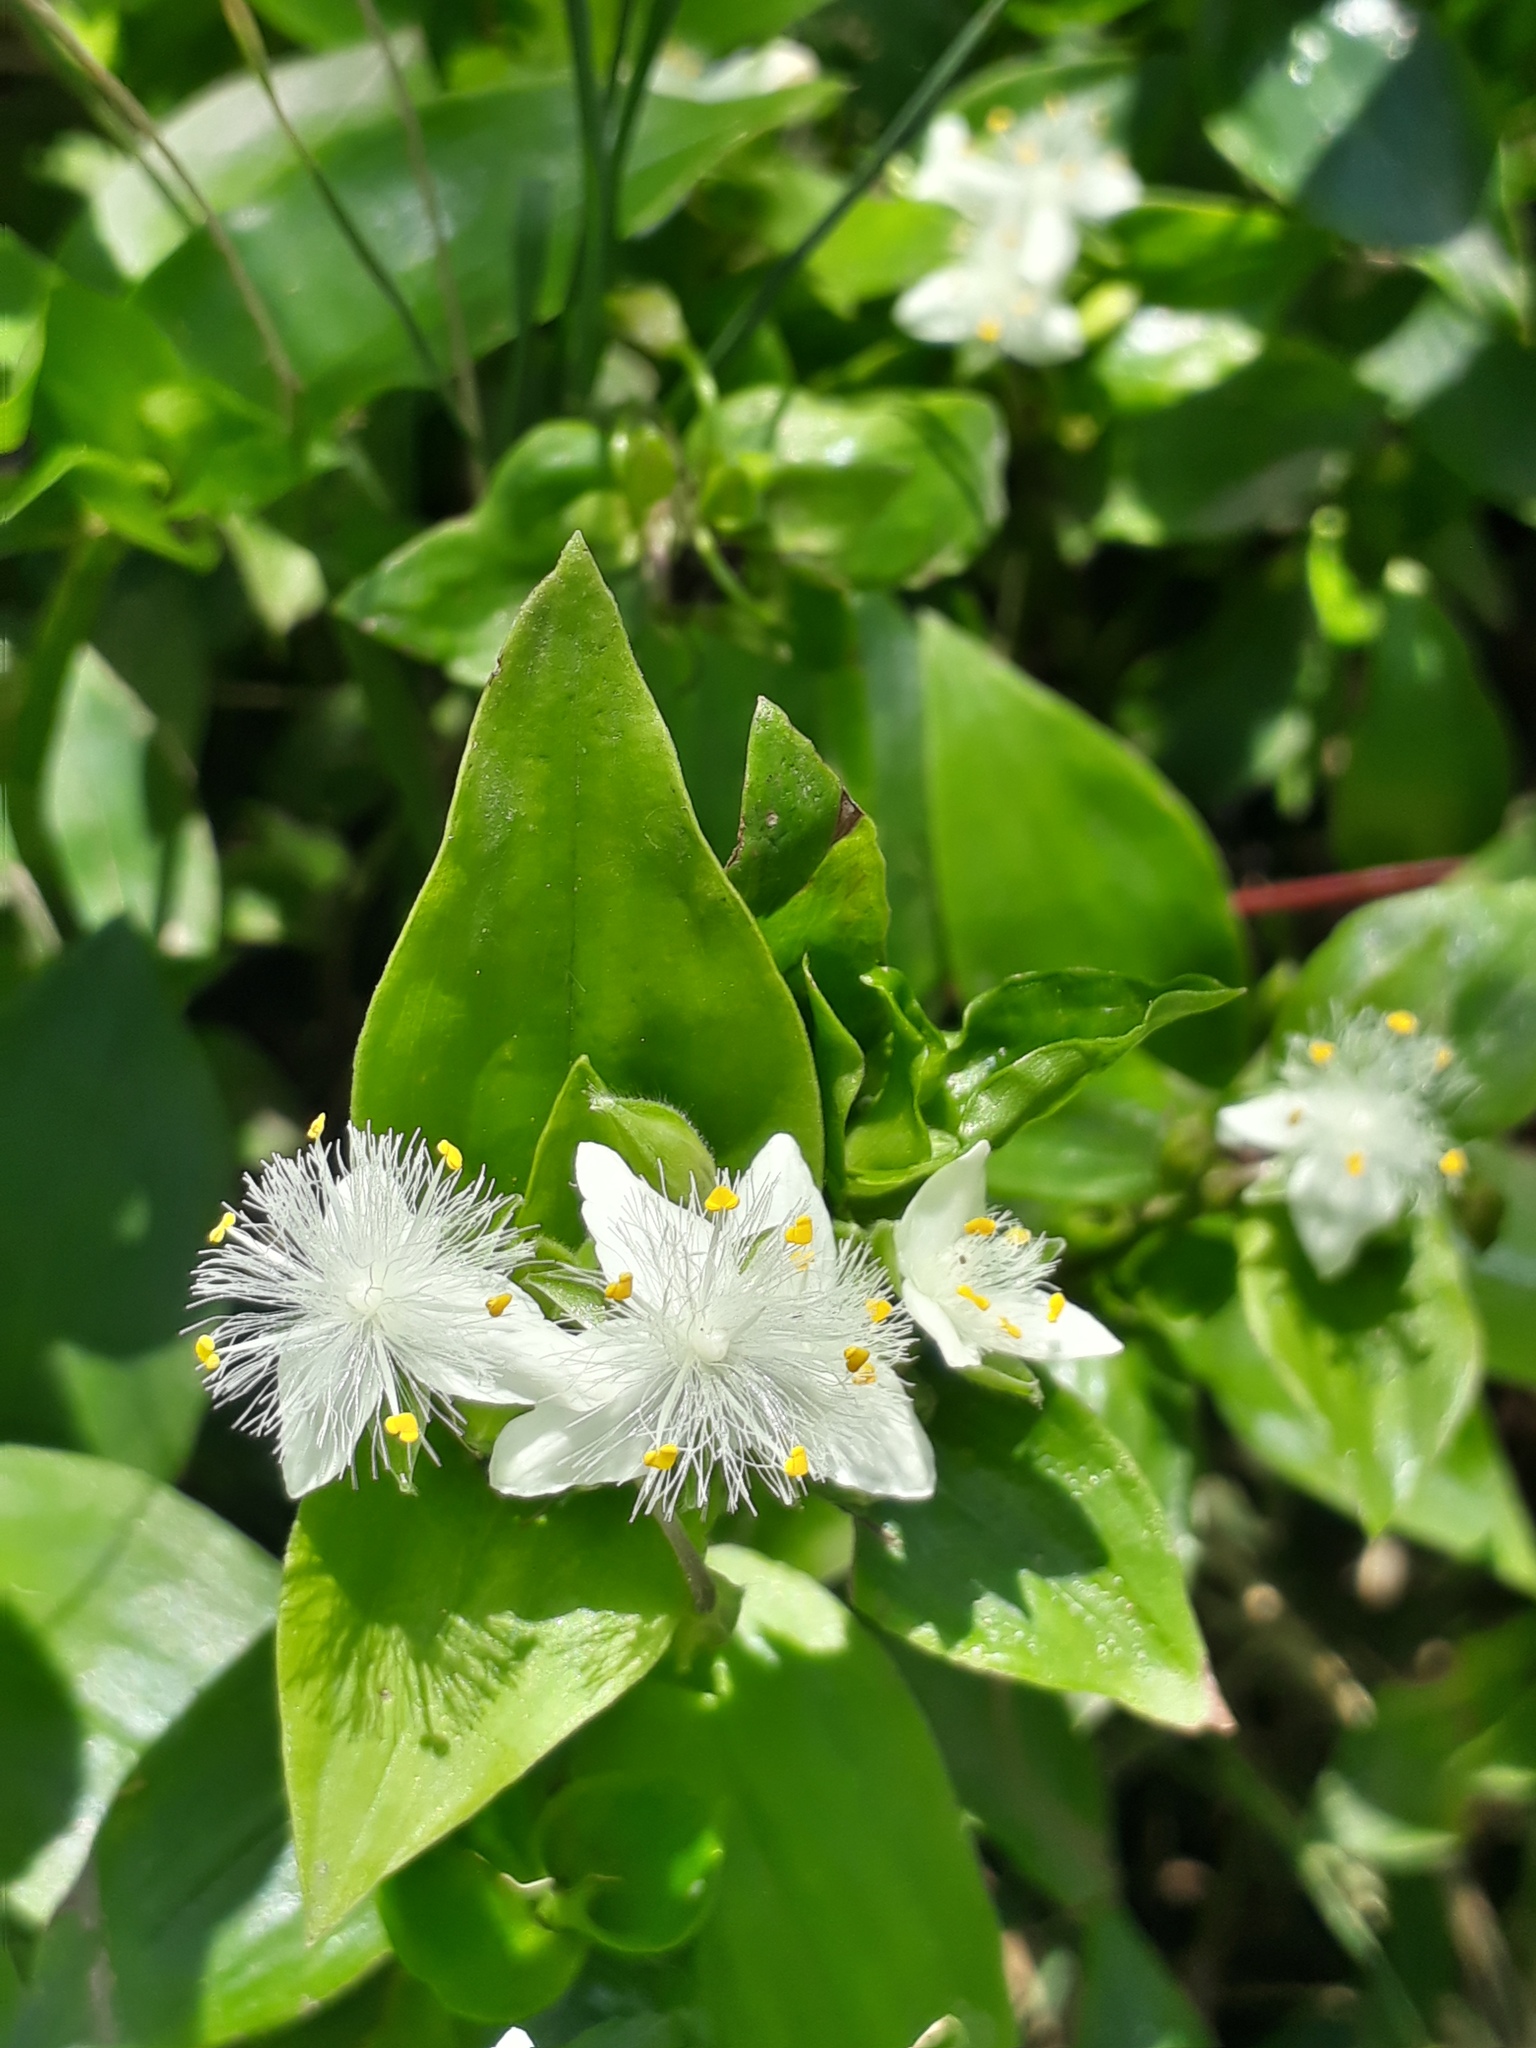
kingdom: Plantae
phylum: Tracheophyta
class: Liliopsida
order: Commelinales
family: Commelinaceae
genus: Tradescantia
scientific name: Tradescantia fluminensis
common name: Wandering-jew
